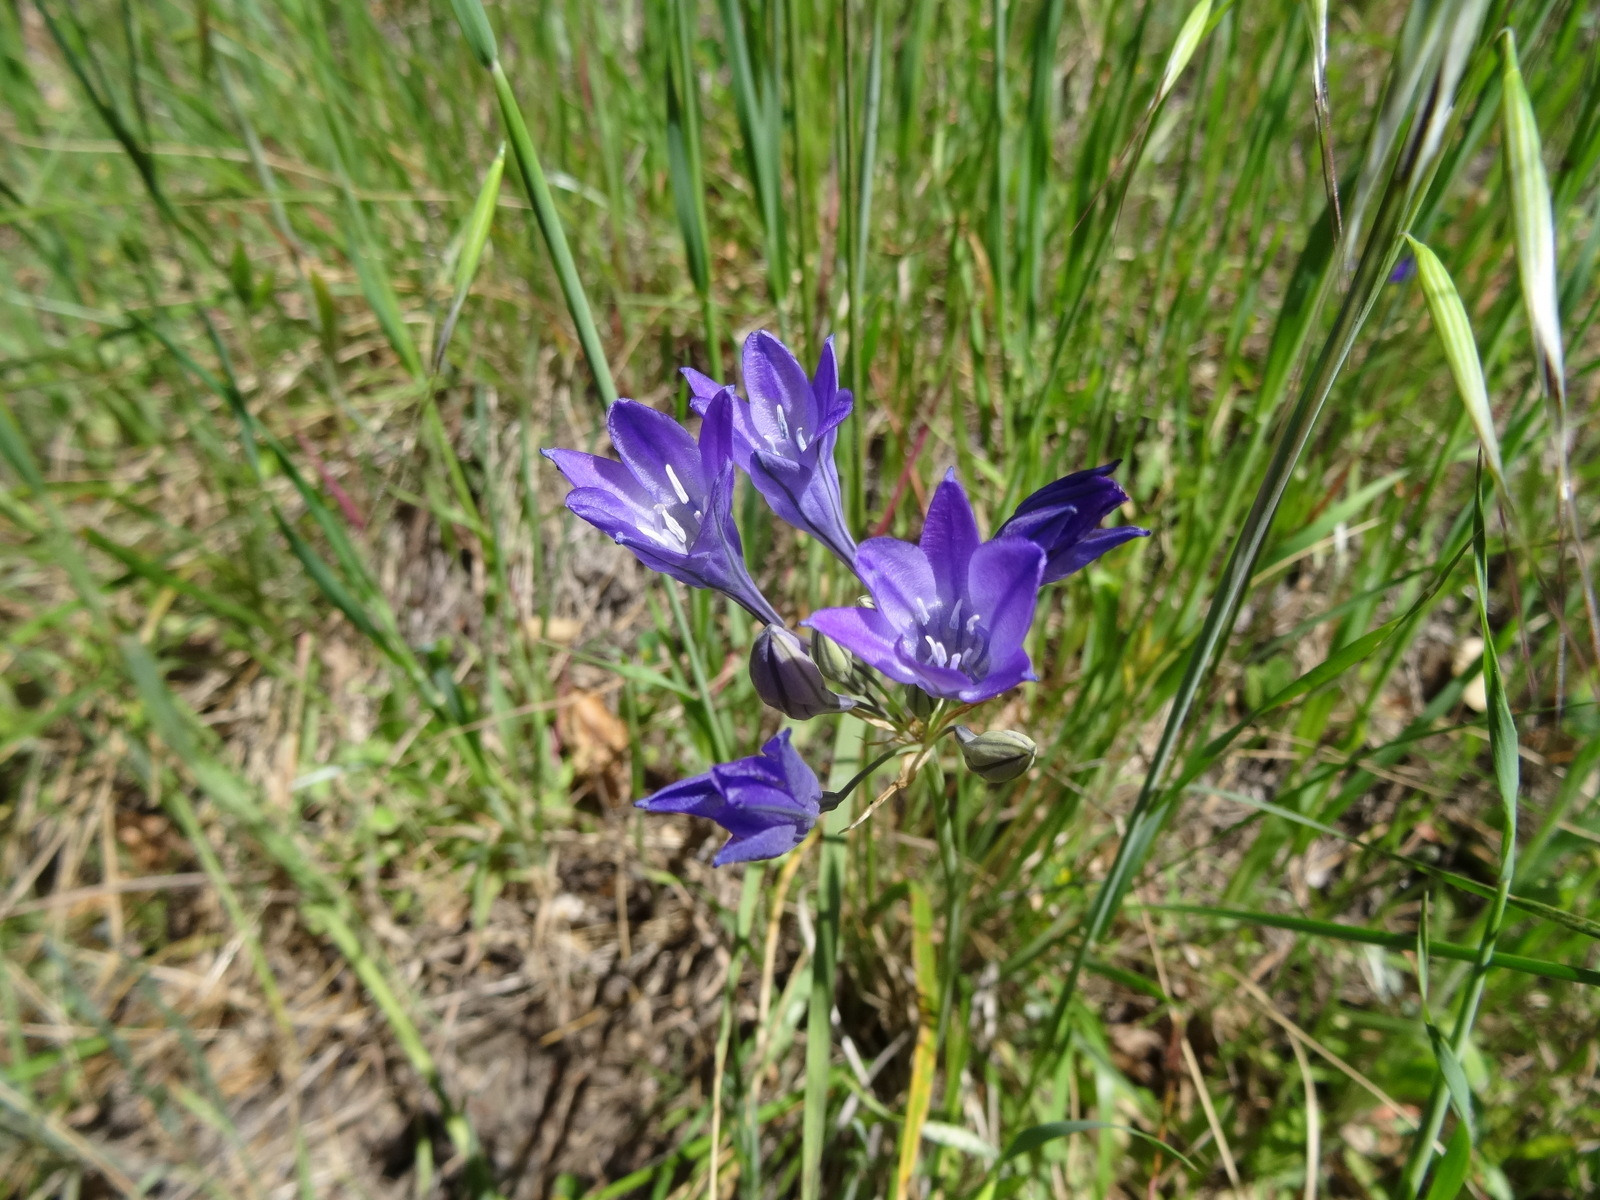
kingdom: Plantae
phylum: Tracheophyta
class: Liliopsida
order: Asparagales
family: Asparagaceae
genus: Triteleia
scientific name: Triteleia laxa
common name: Triplet-lily
